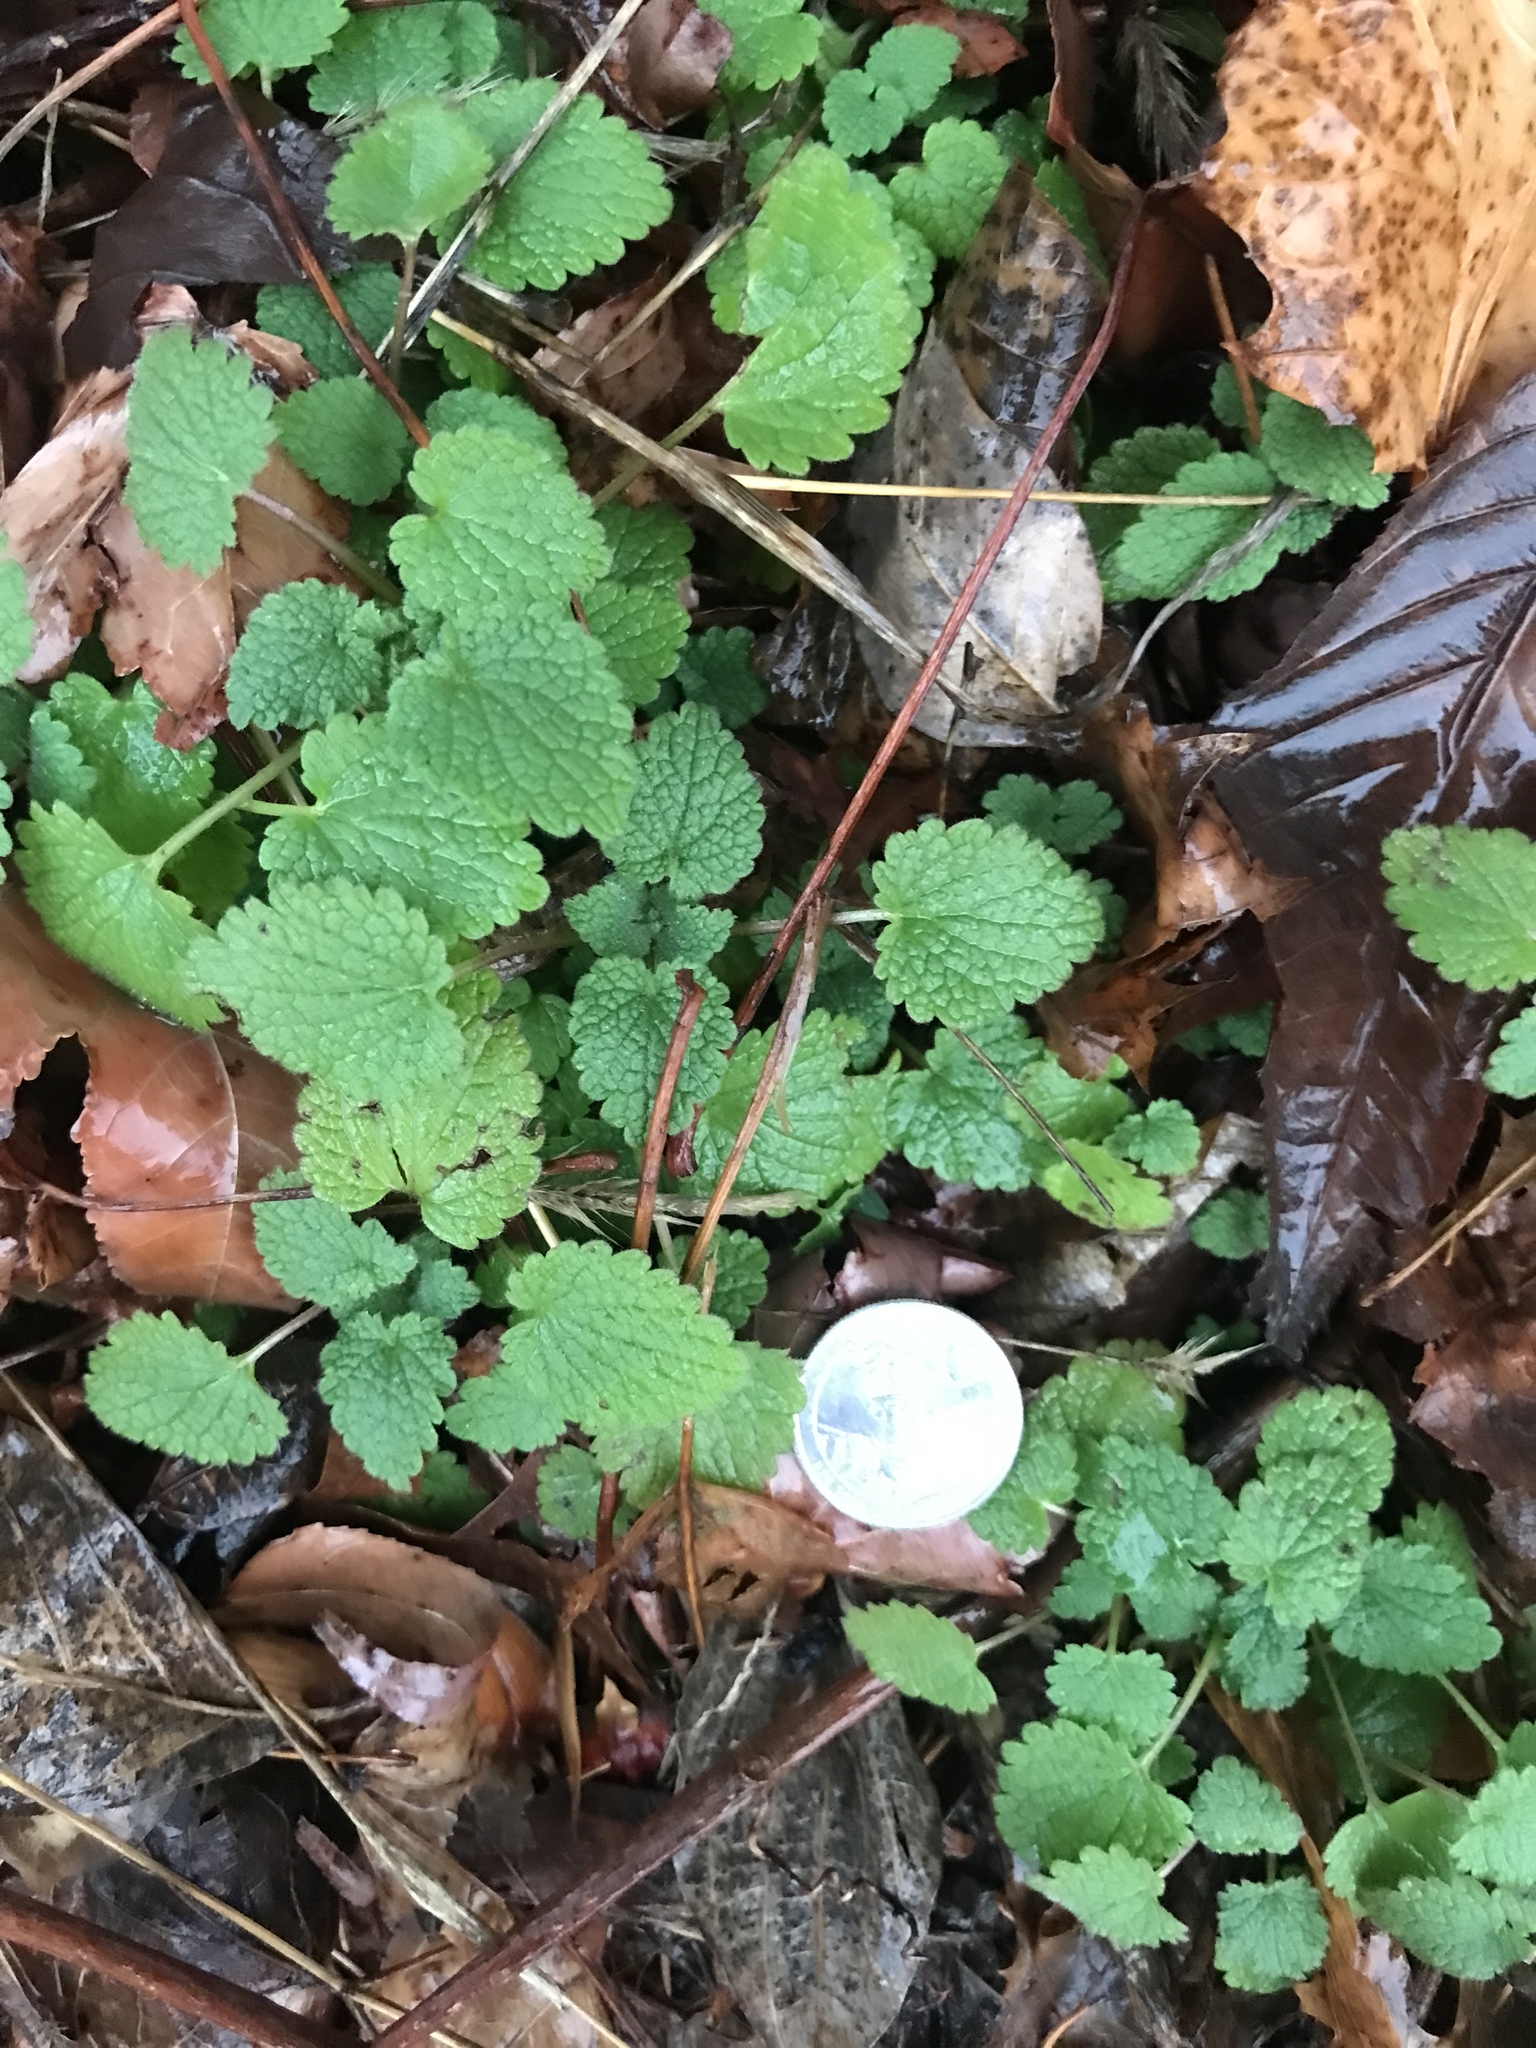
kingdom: Plantae
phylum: Tracheophyta
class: Magnoliopsida
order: Lamiales
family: Lamiaceae
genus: Lamium
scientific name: Lamium purpureum
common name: Red dead-nettle
